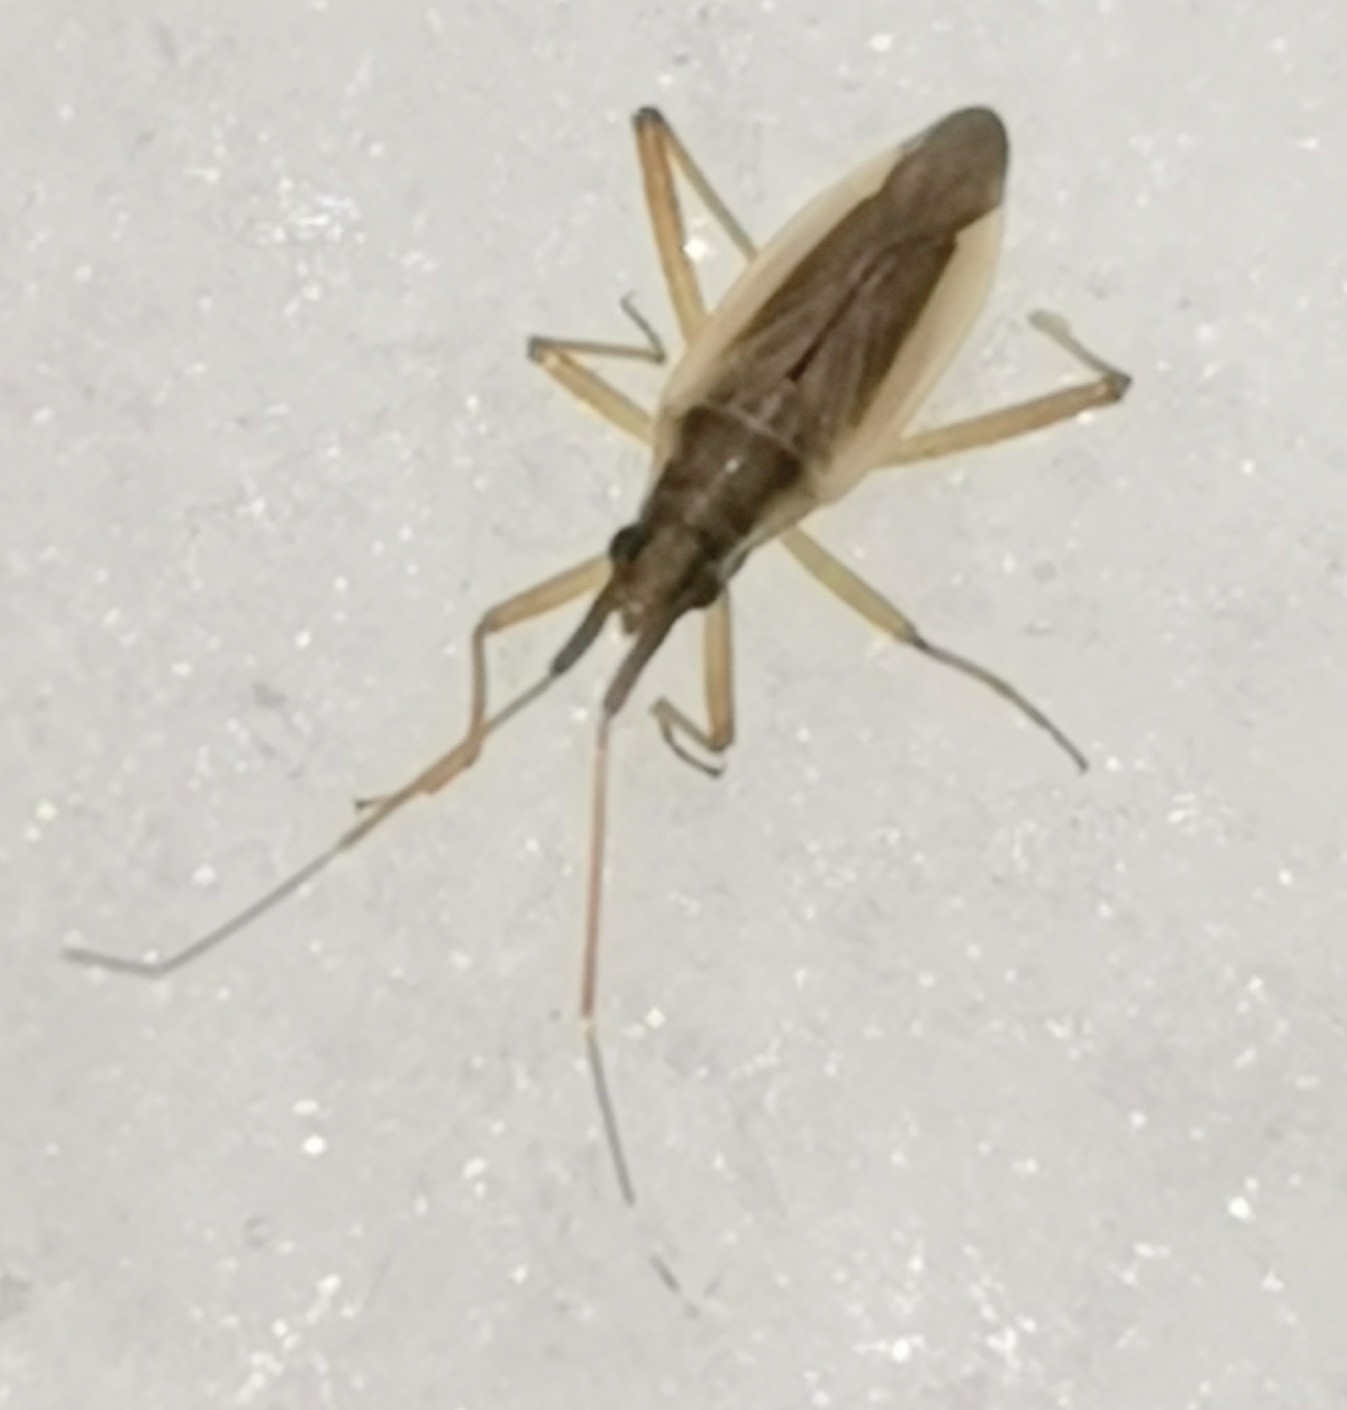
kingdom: Animalia
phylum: Arthropoda
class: Insecta
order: Hemiptera
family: Miridae
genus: Stenodema
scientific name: Stenodema holsata
